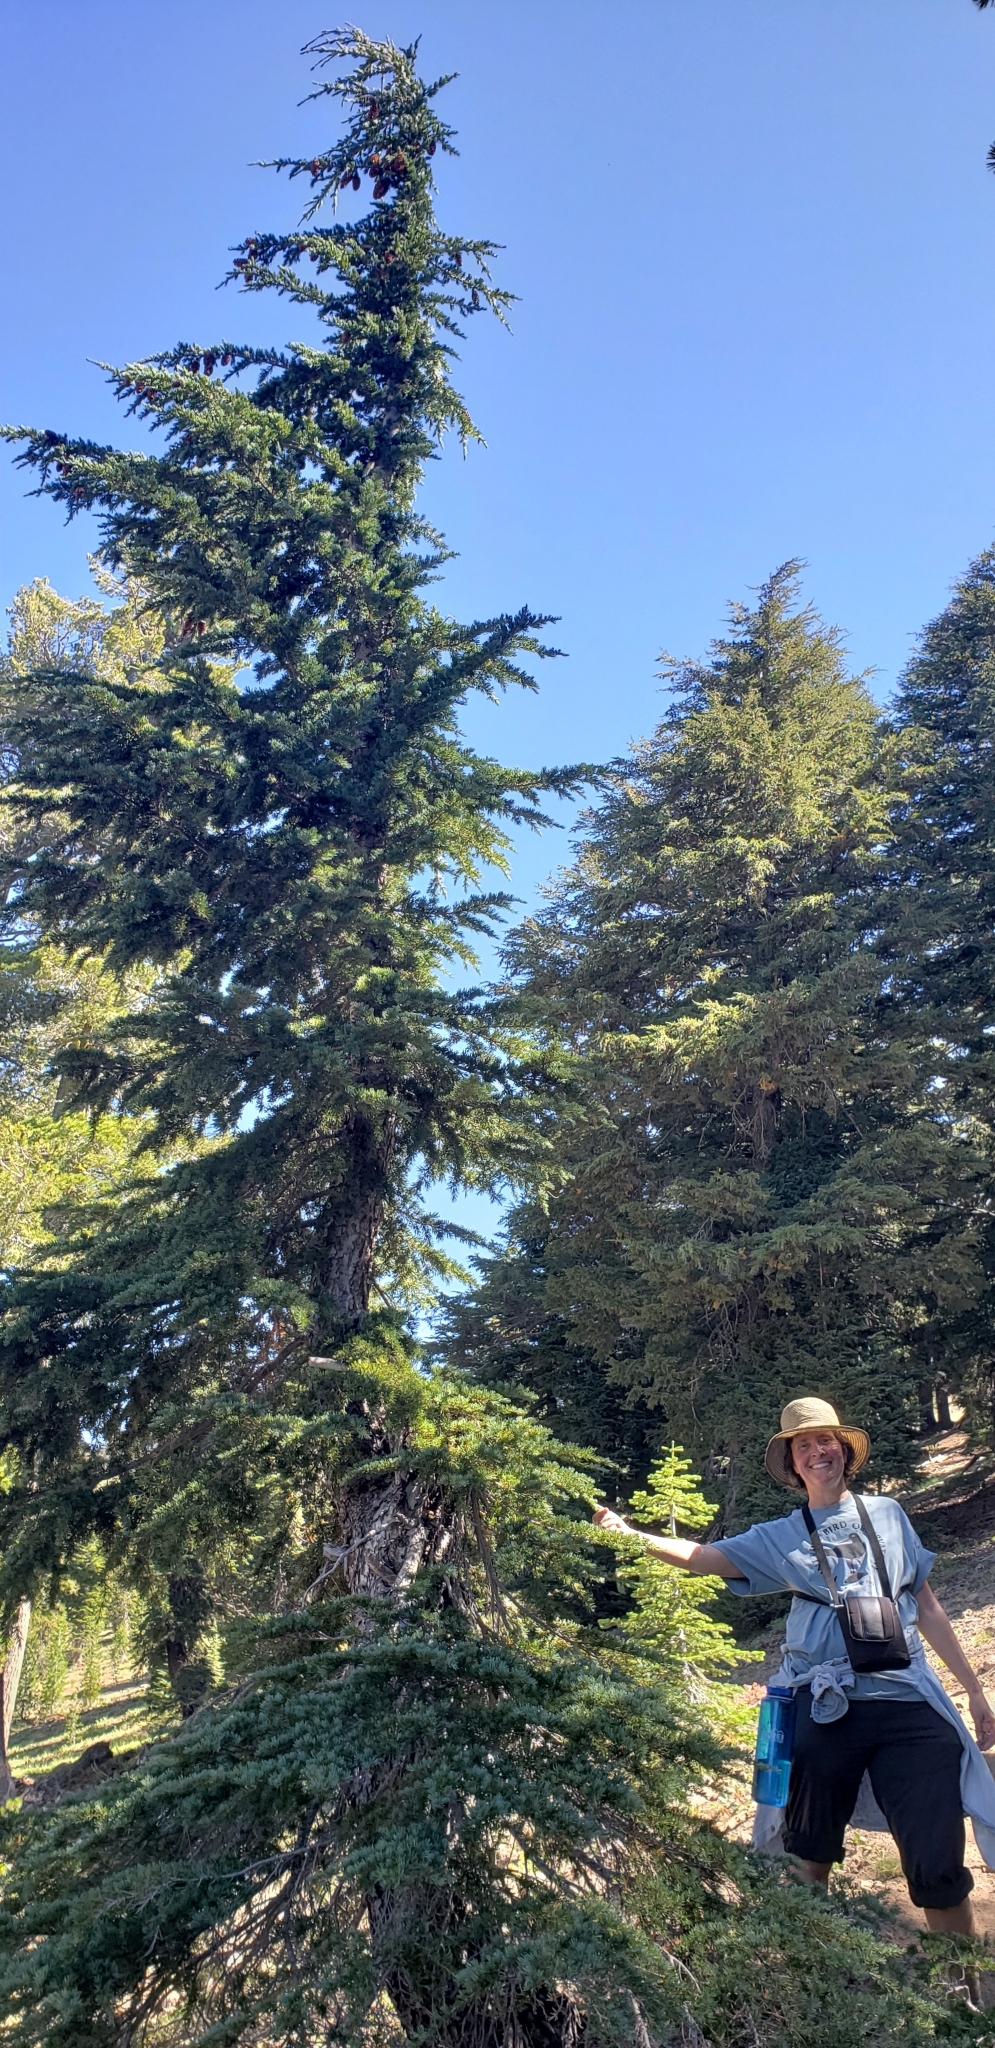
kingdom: Plantae
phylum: Tracheophyta
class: Pinopsida
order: Pinales
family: Pinaceae
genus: Tsuga
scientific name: Tsuga mertensiana
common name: Mountain hemlock
